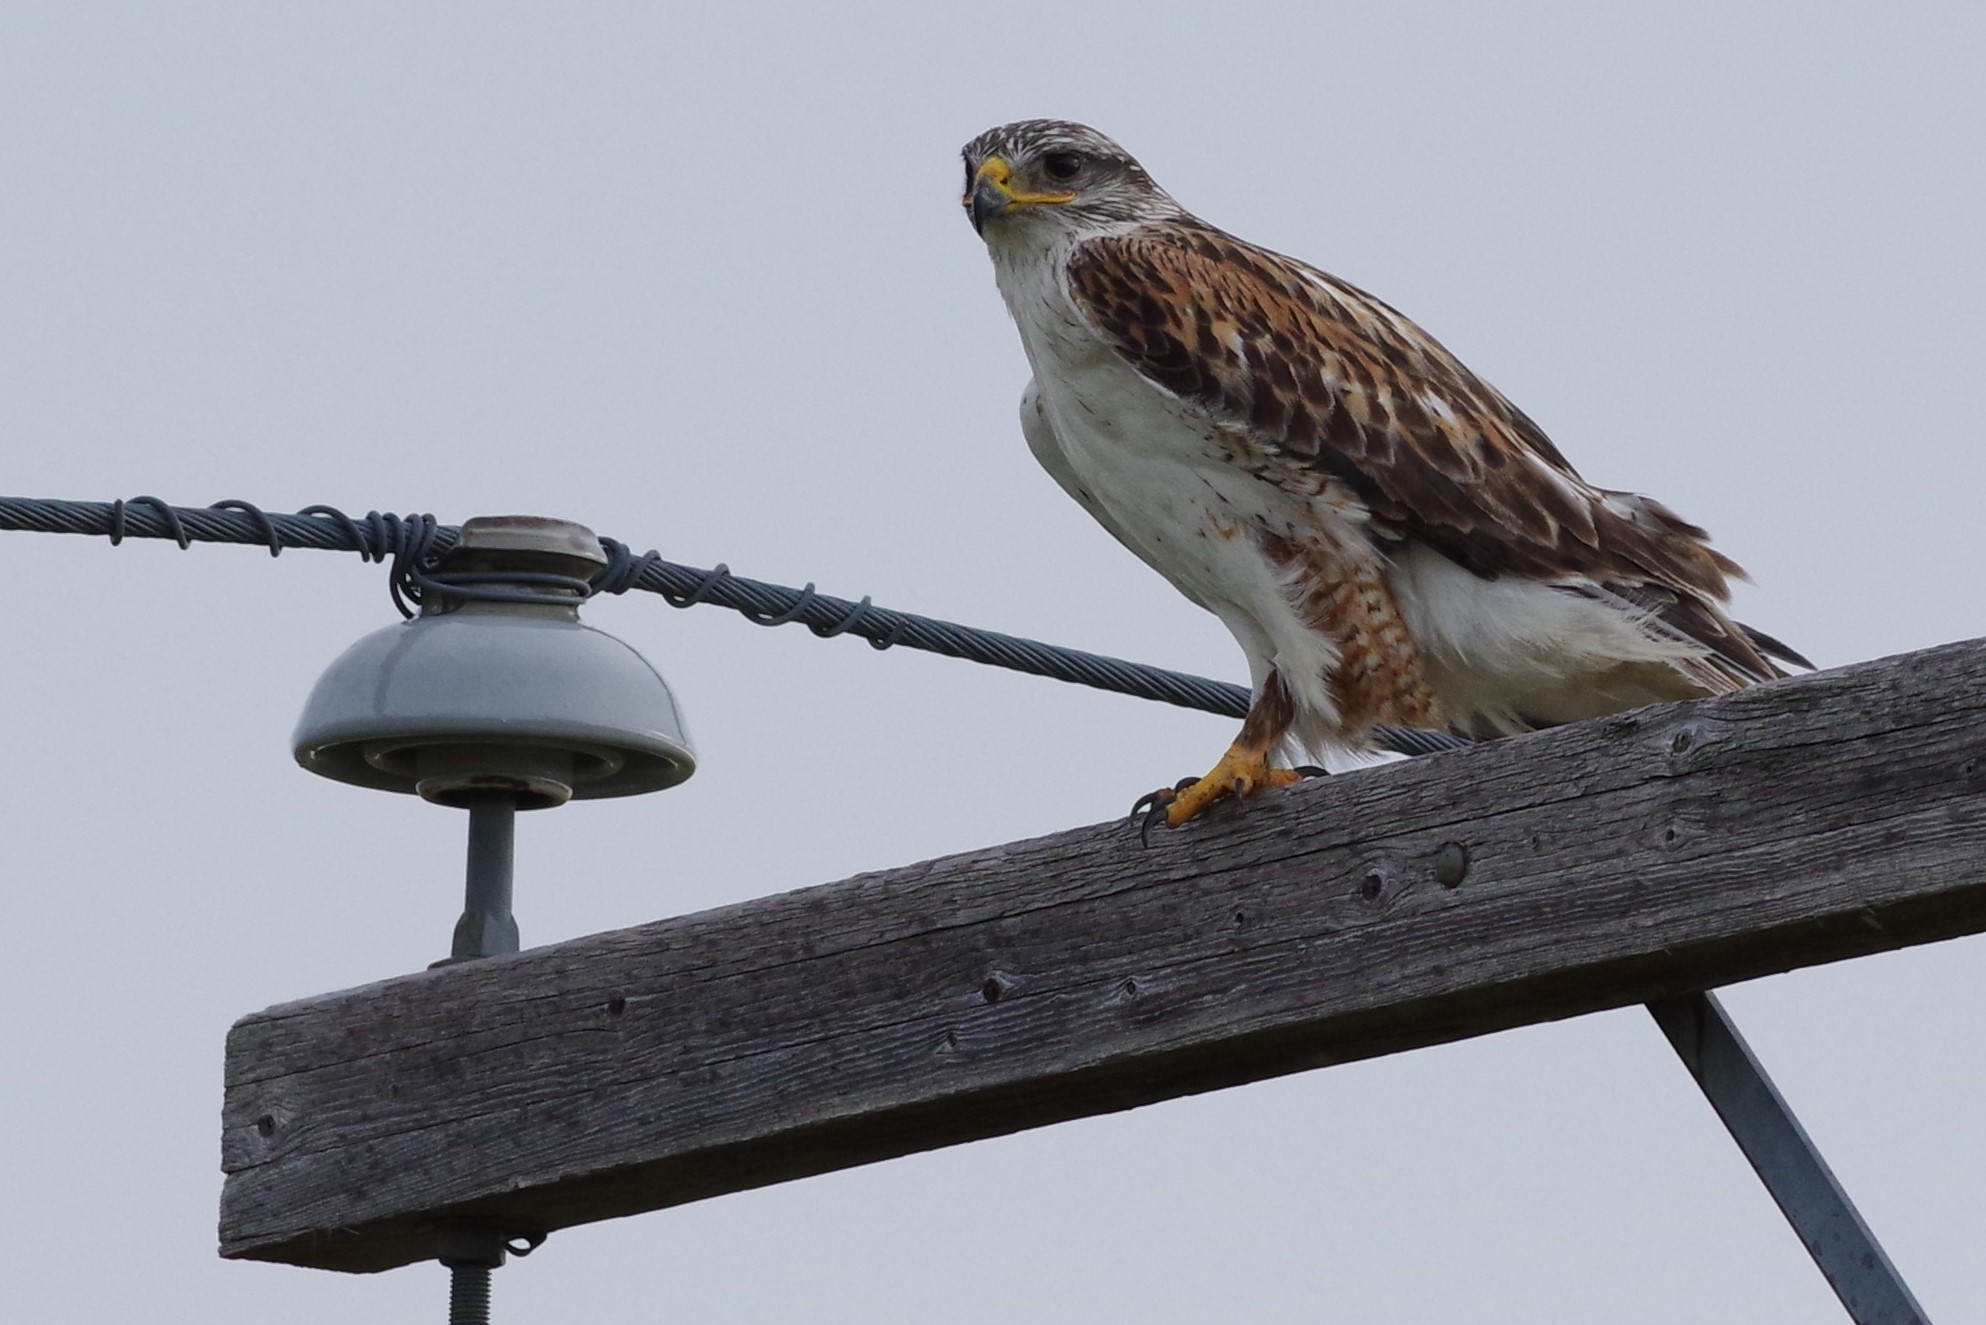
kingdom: Animalia
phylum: Chordata
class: Aves
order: Accipitriformes
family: Accipitridae
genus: Buteo
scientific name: Buteo regalis
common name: Ferruginous hawk
